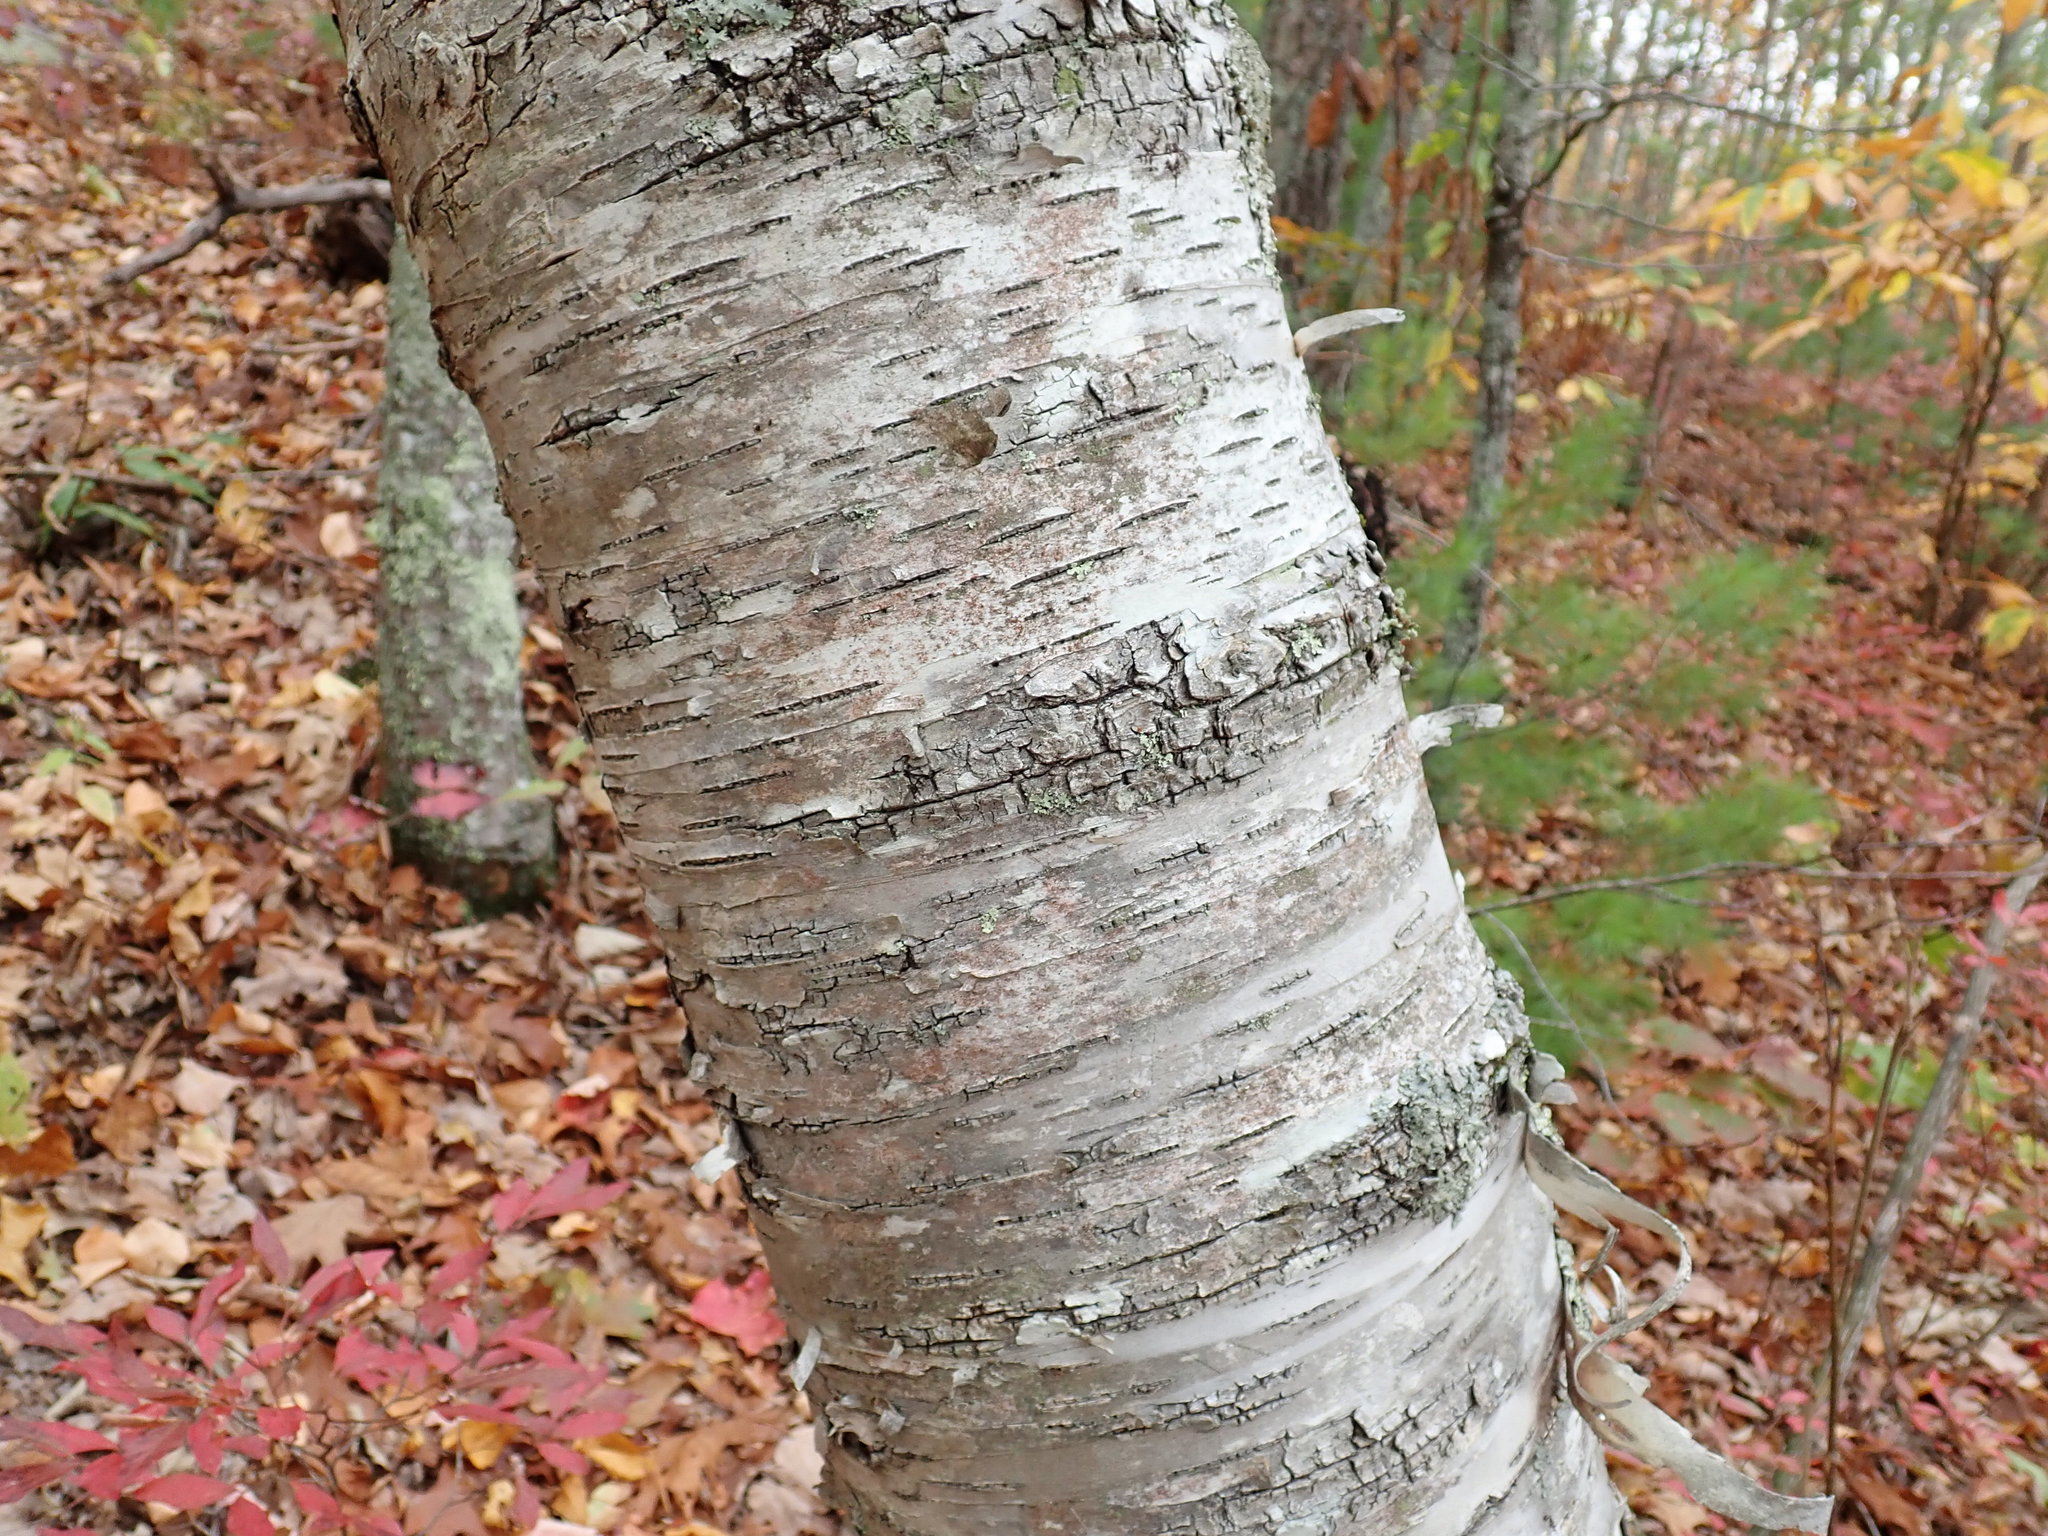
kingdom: Plantae
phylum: Tracheophyta
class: Magnoliopsida
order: Fagales
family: Betulaceae
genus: Betula
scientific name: Betula papyrifera
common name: Paper birch
